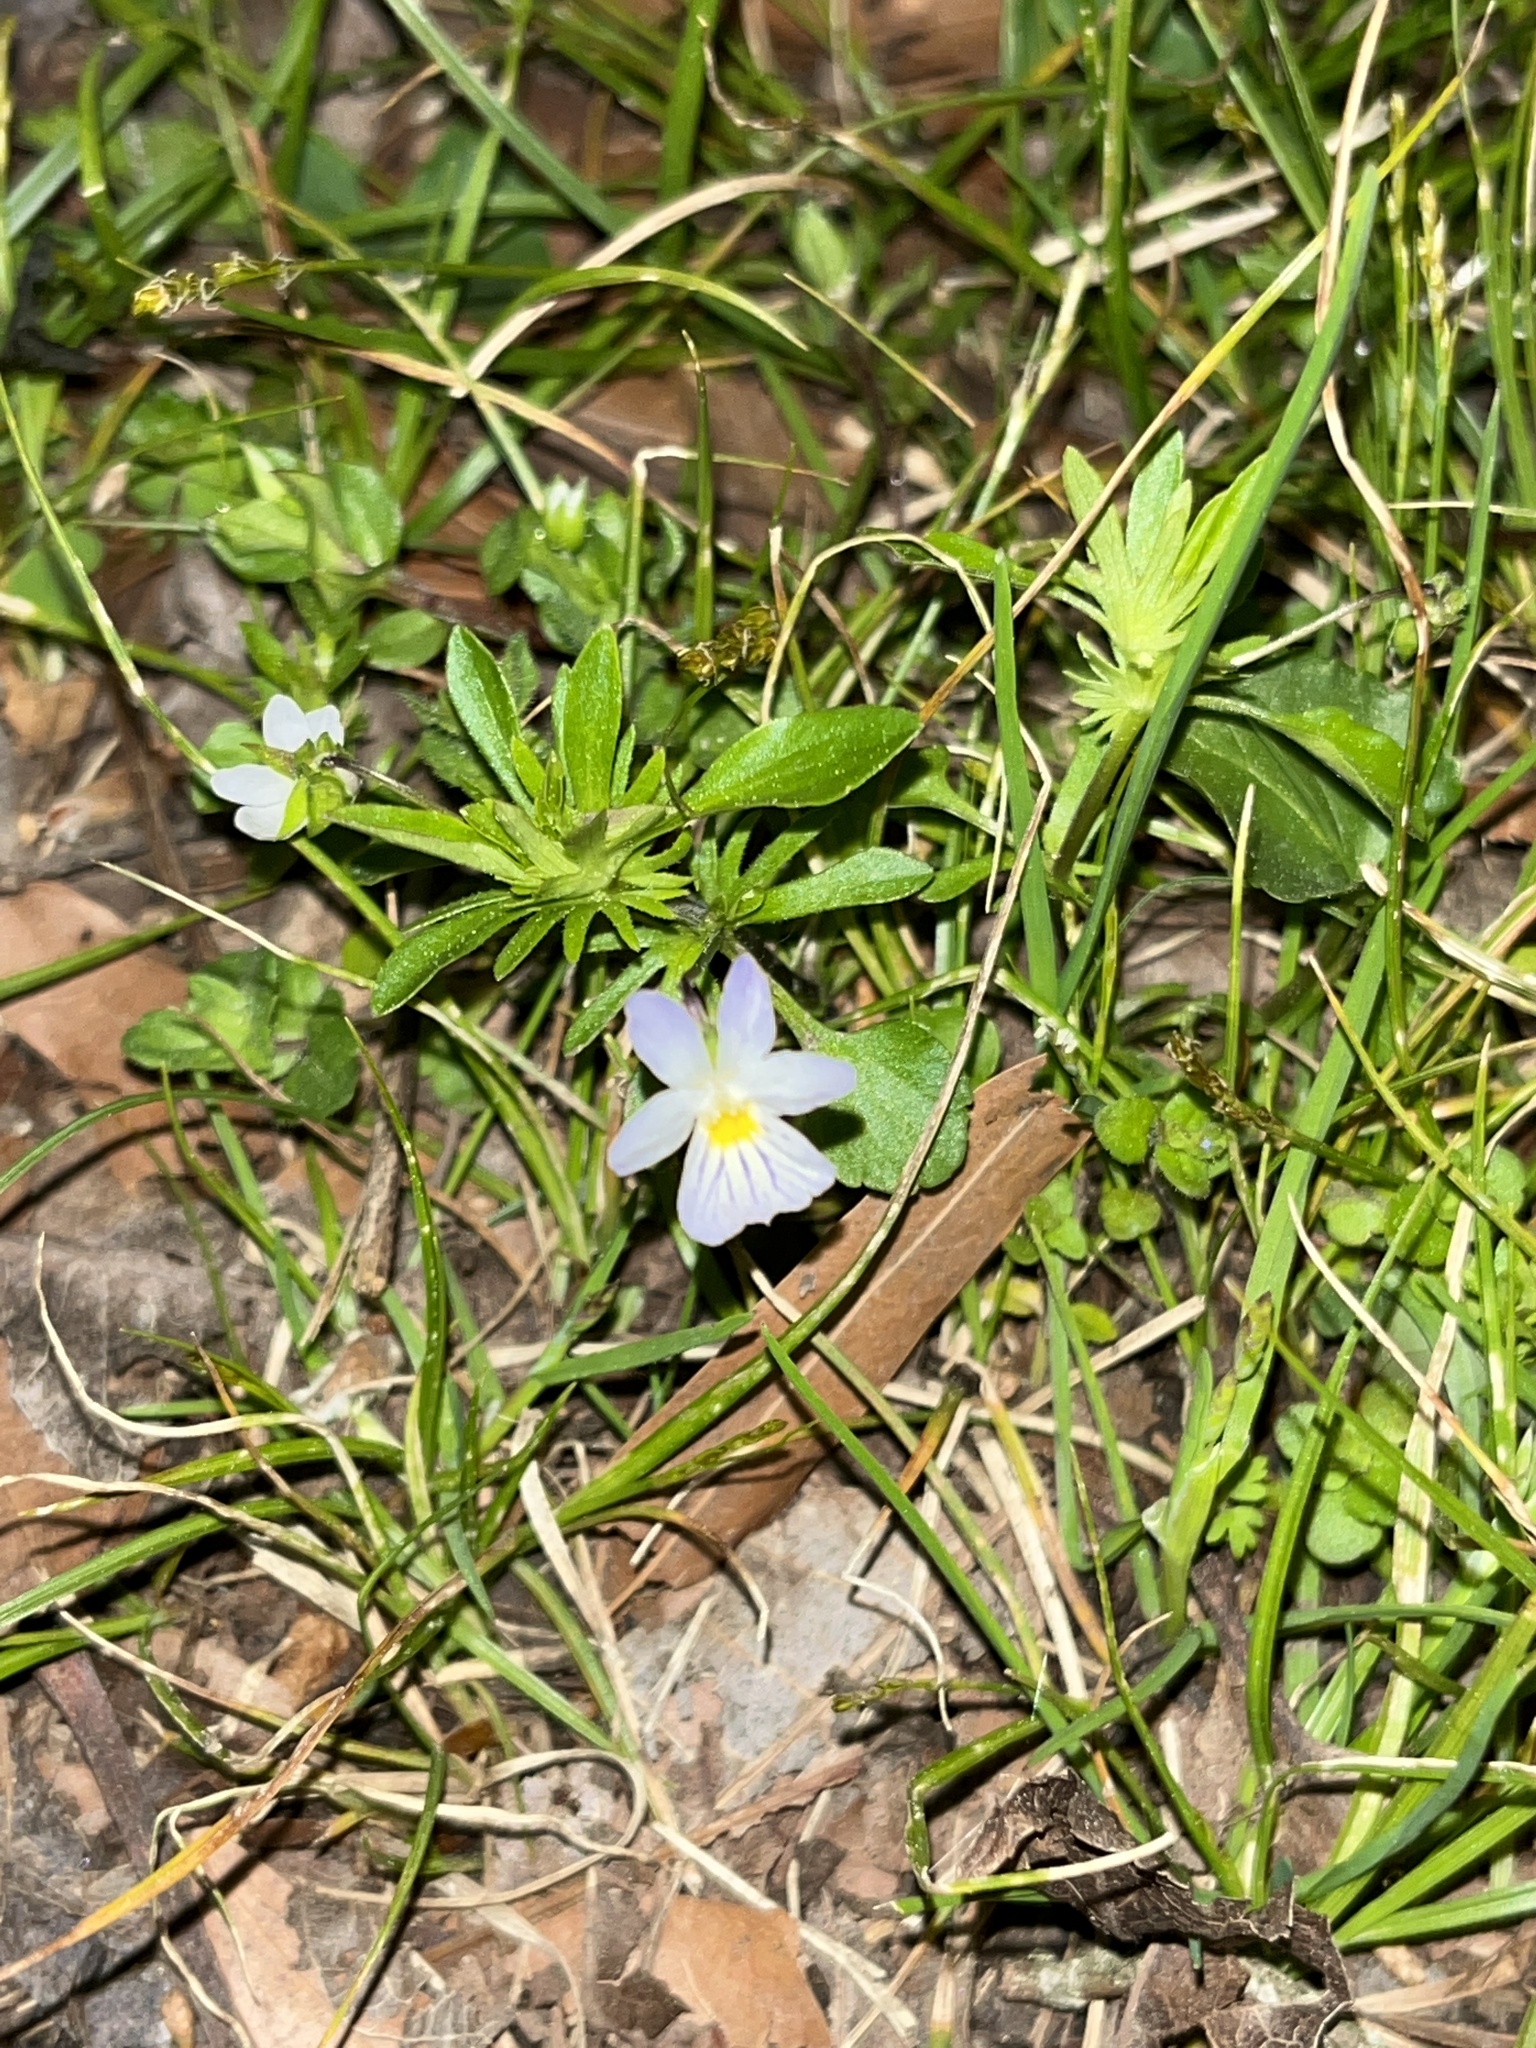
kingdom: Plantae
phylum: Tracheophyta
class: Magnoliopsida
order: Malpighiales
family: Violaceae
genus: Viola
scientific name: Viola rafinesquei
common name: American field pansy
